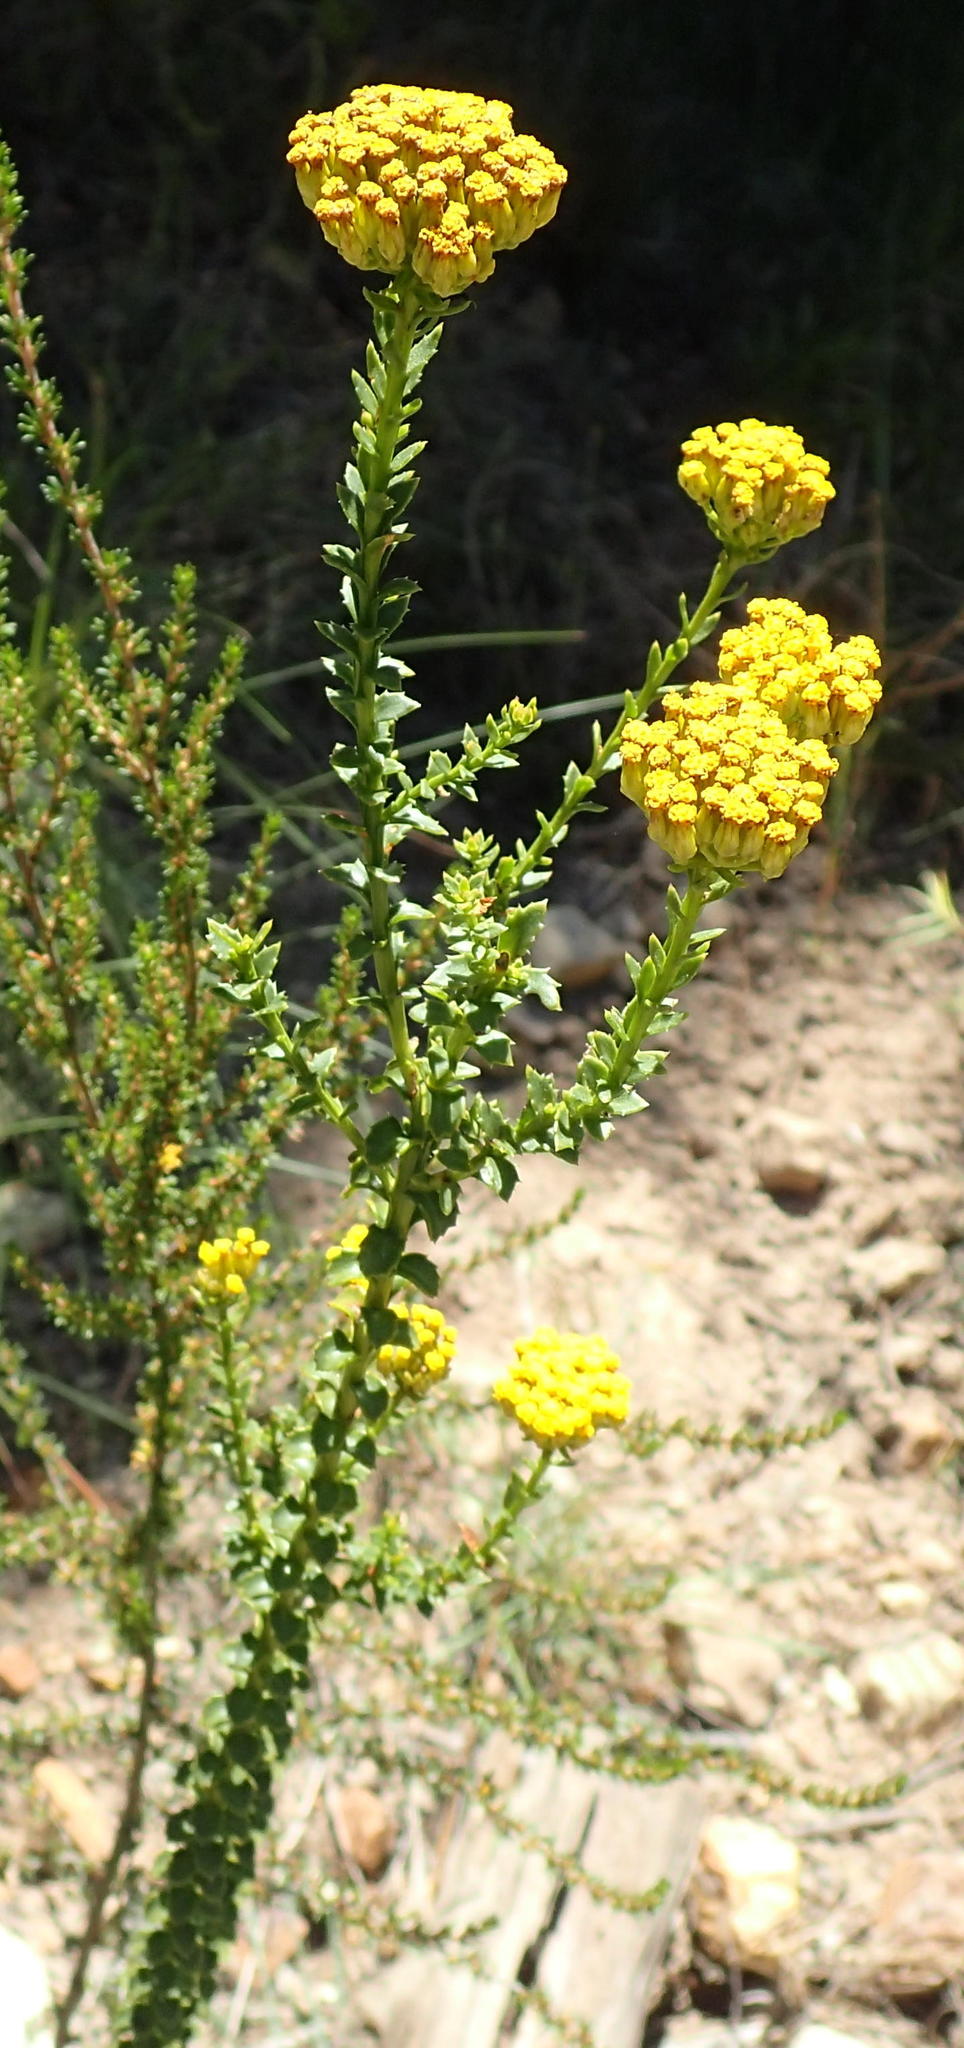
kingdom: Plantae
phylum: Tracheophyta
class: Magnoliopsida
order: Asterales
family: Asteraceae
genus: Athanasia
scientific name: Athanasia dentata
